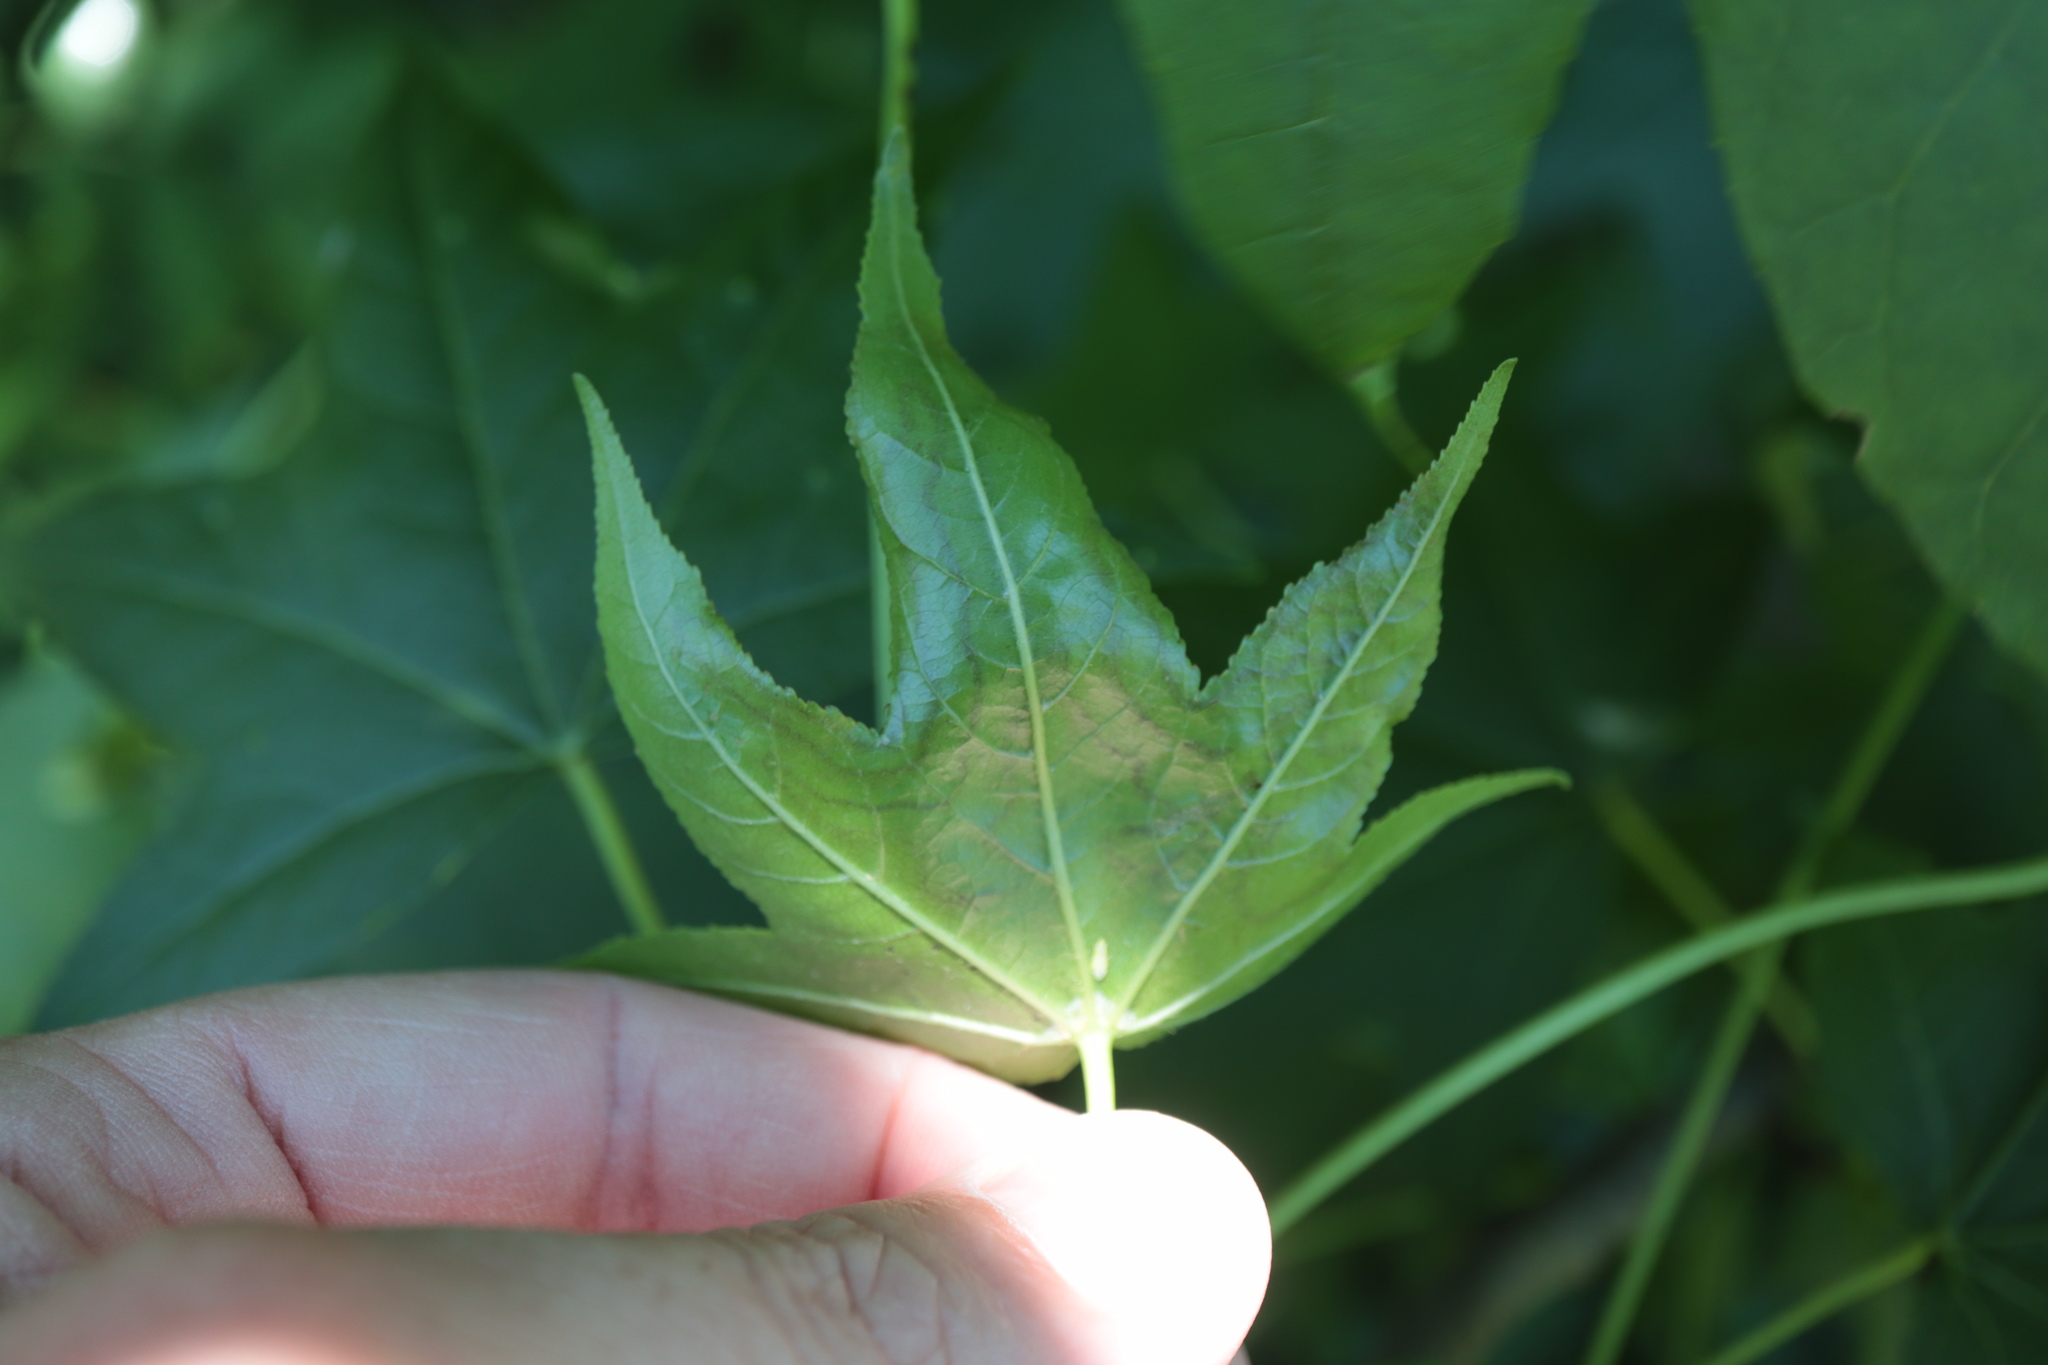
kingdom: Animalia
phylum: Arthropoda
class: Insecta
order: Lepidoptera
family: Gracillariidae
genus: Phyllocnistis
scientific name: Phyllocnistis liquidambarisella
